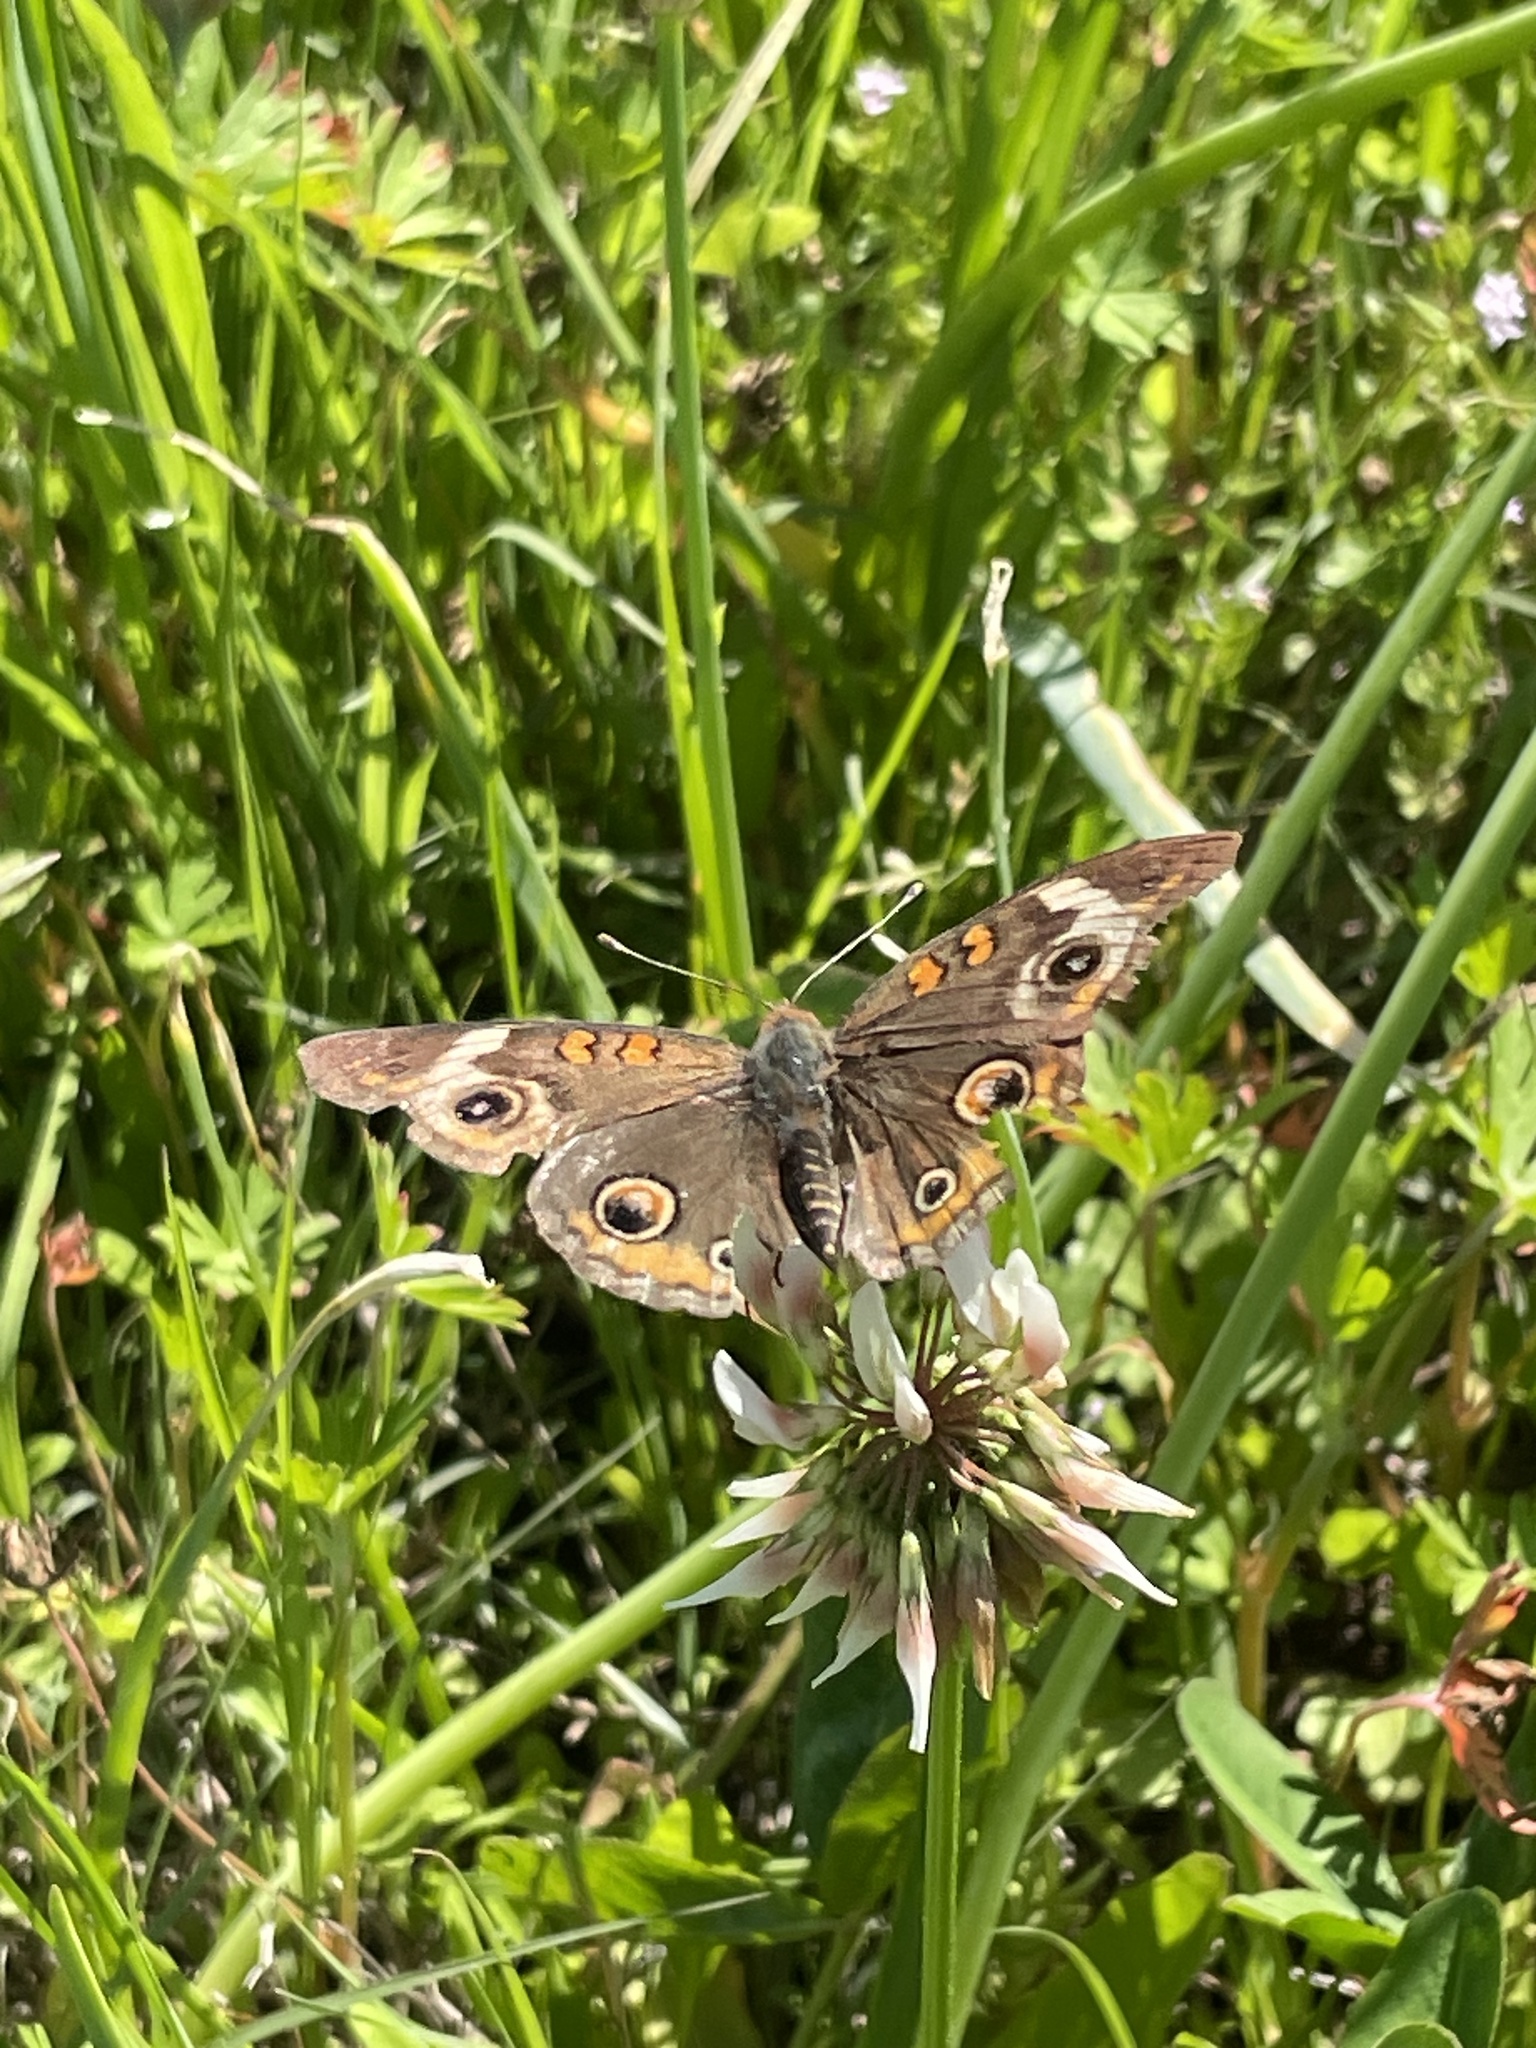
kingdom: Animalia
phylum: Arthropoda
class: Insecta
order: Lepidoptera
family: Nymphalidae
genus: Junonia
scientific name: Junonia coenia
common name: Common buckeye
